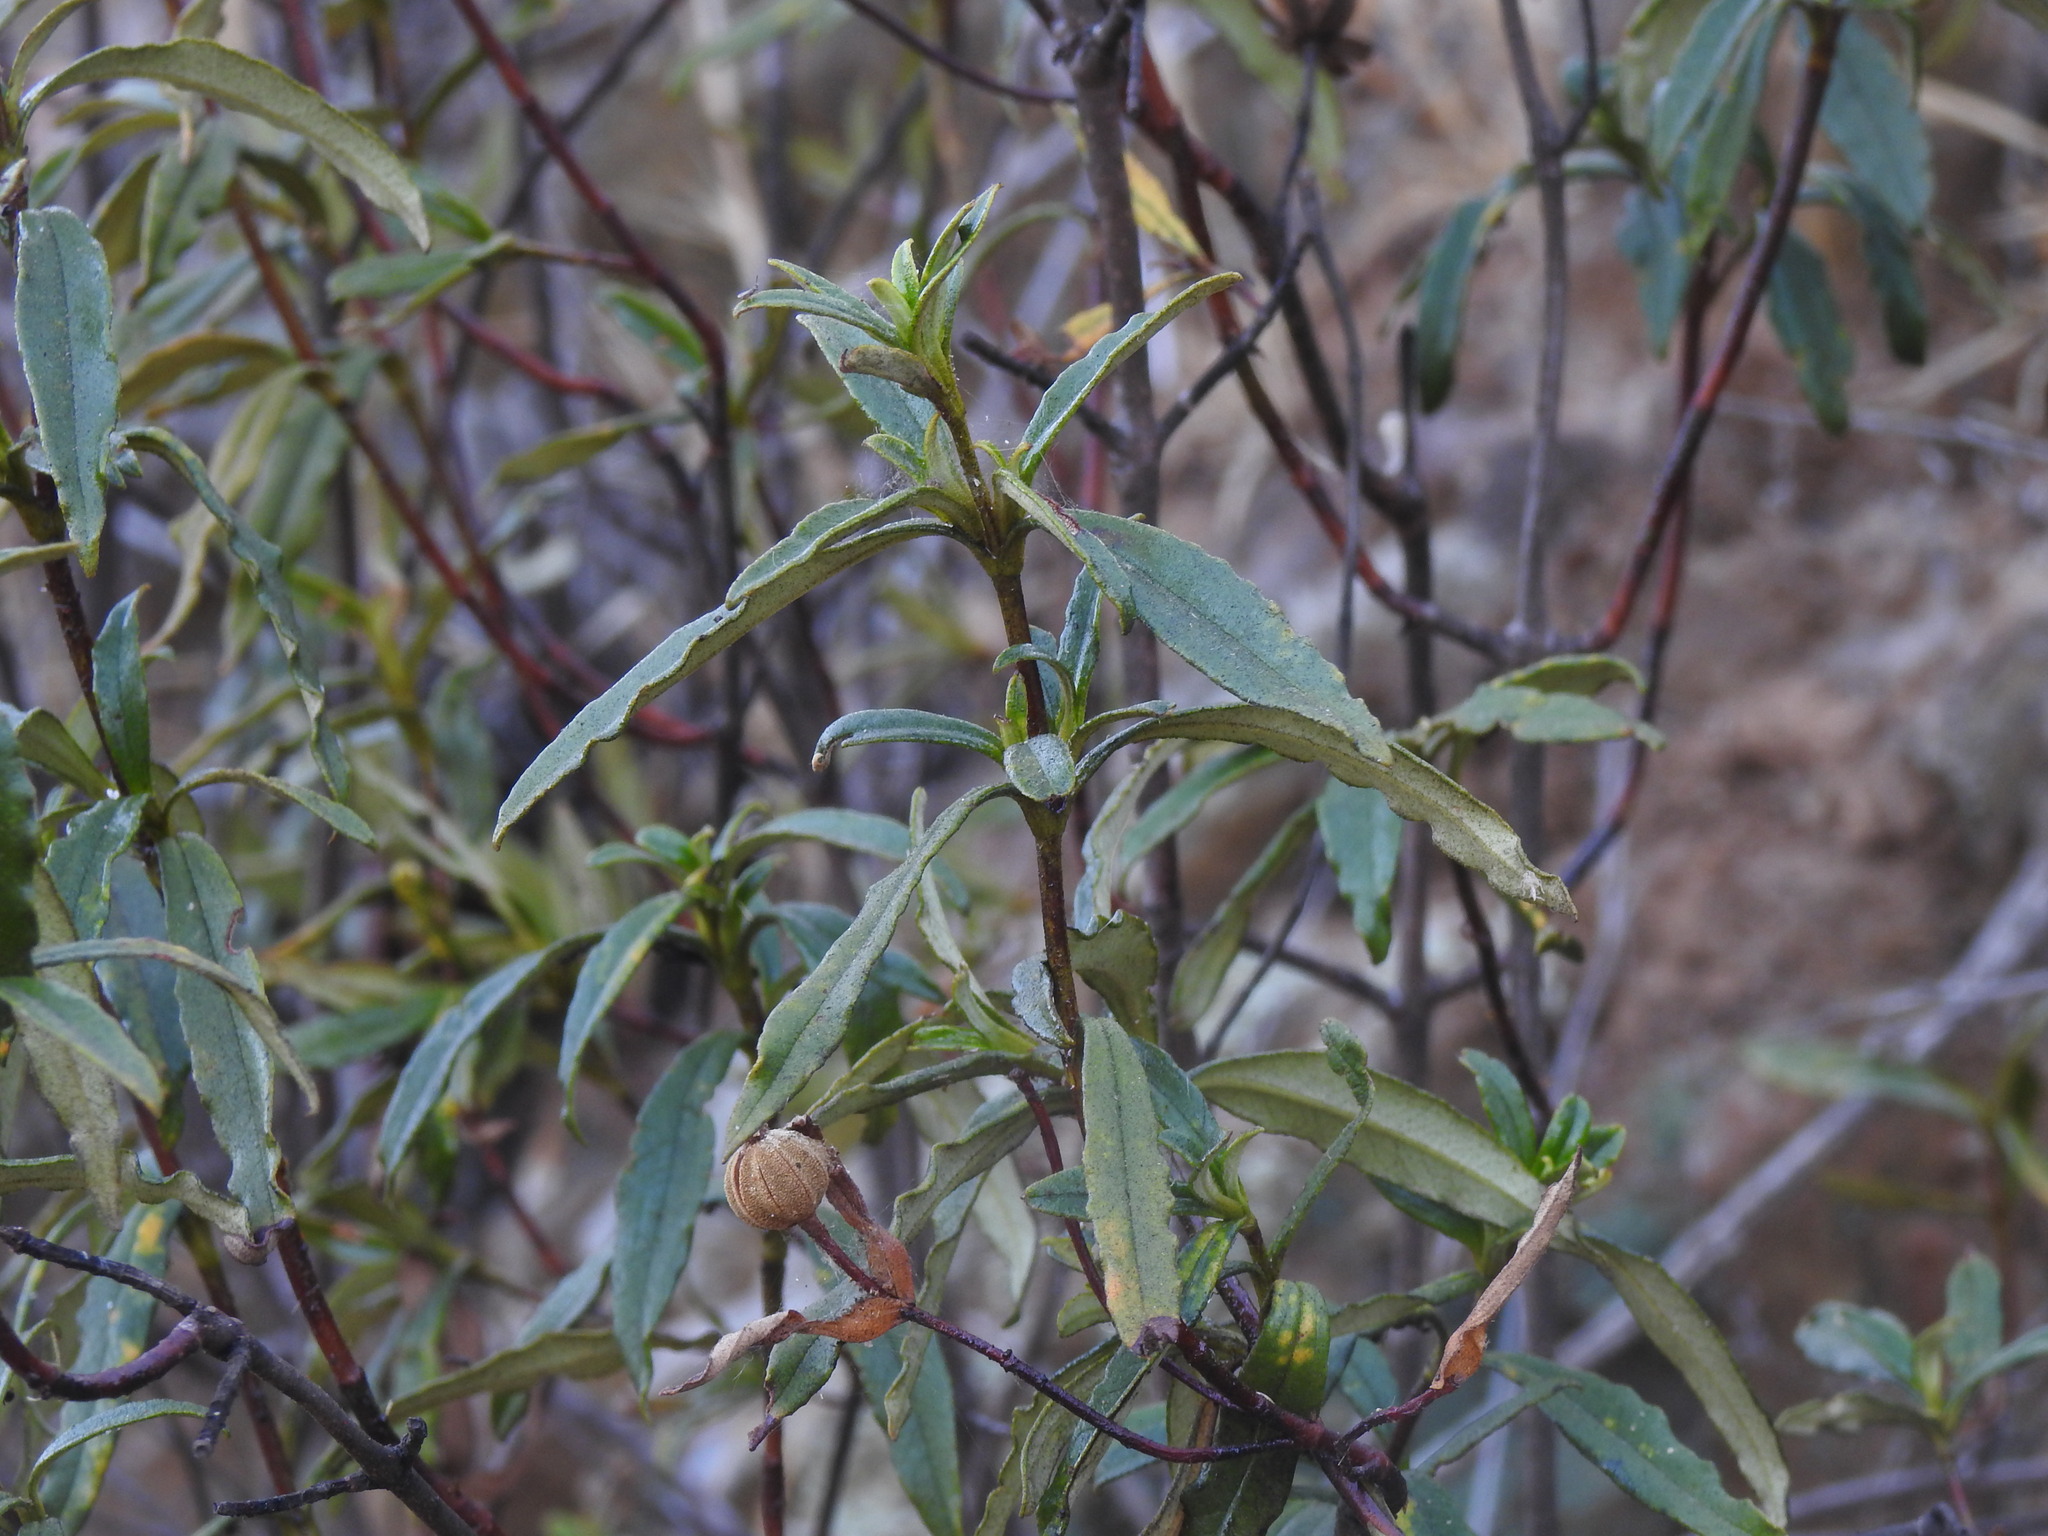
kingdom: Plantae
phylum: Tracheophyta
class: Magnoliopsida
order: Malvales
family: Cistaceae
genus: Cistus
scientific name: Cistus ladanifer
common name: Common gum cistus
